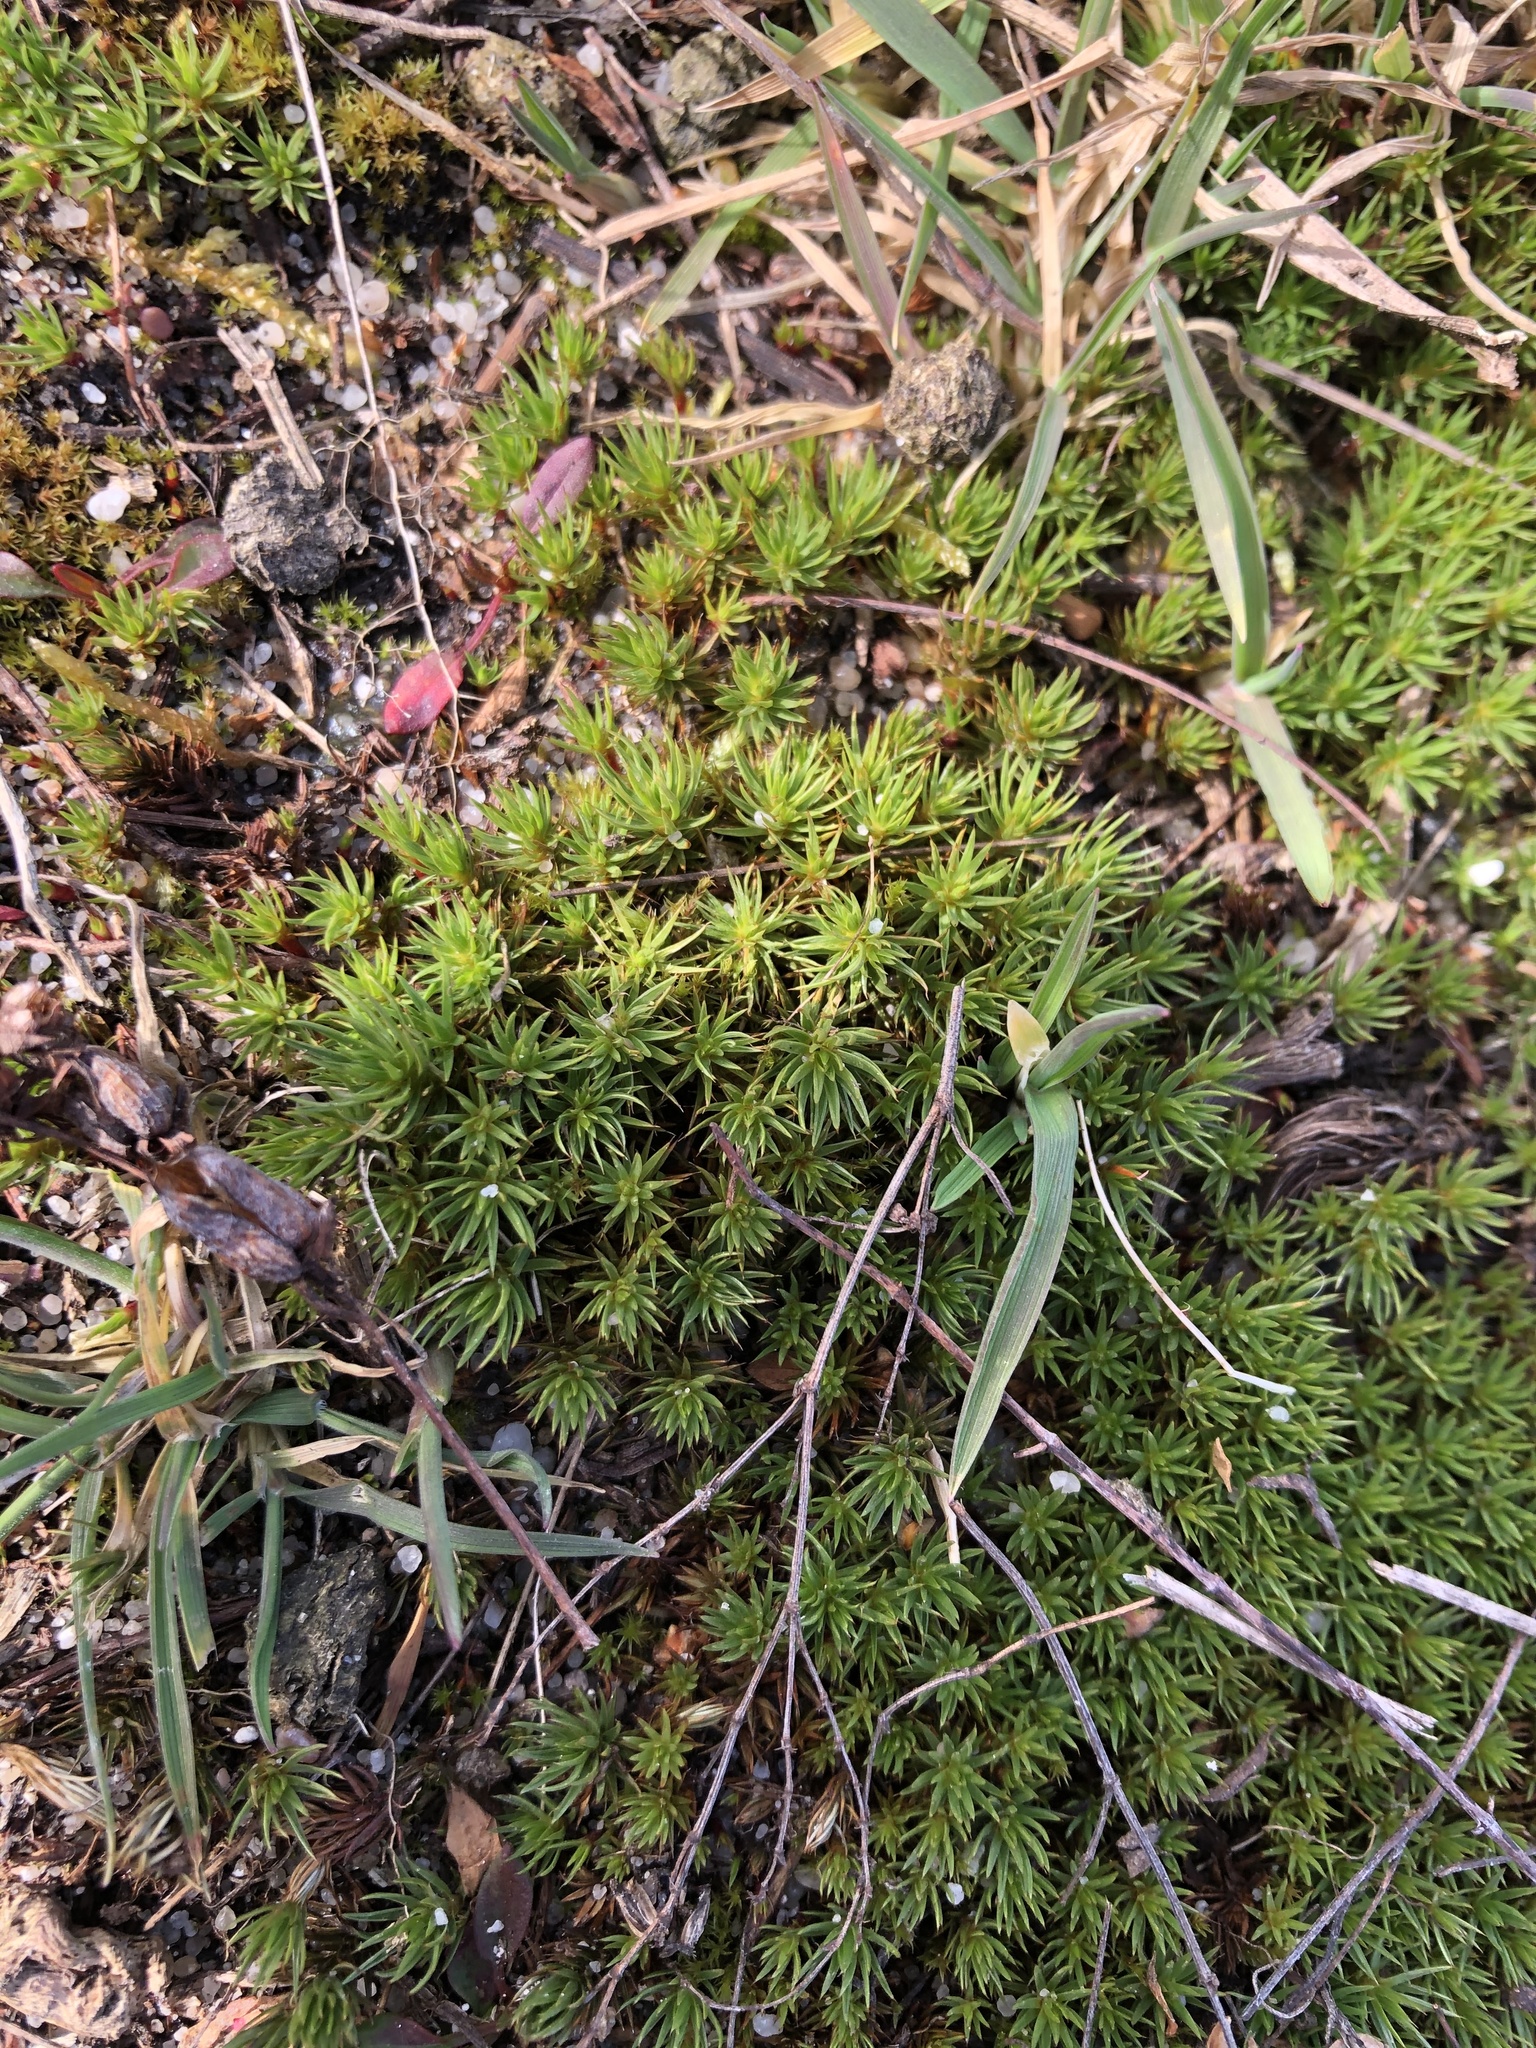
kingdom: Plantae
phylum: Bryophyta
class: Polytrichopsida
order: Polytrichales
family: Polytrichaceae
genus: Polytrichum
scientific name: Polytrichum piliferum
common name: Bristly haircap
